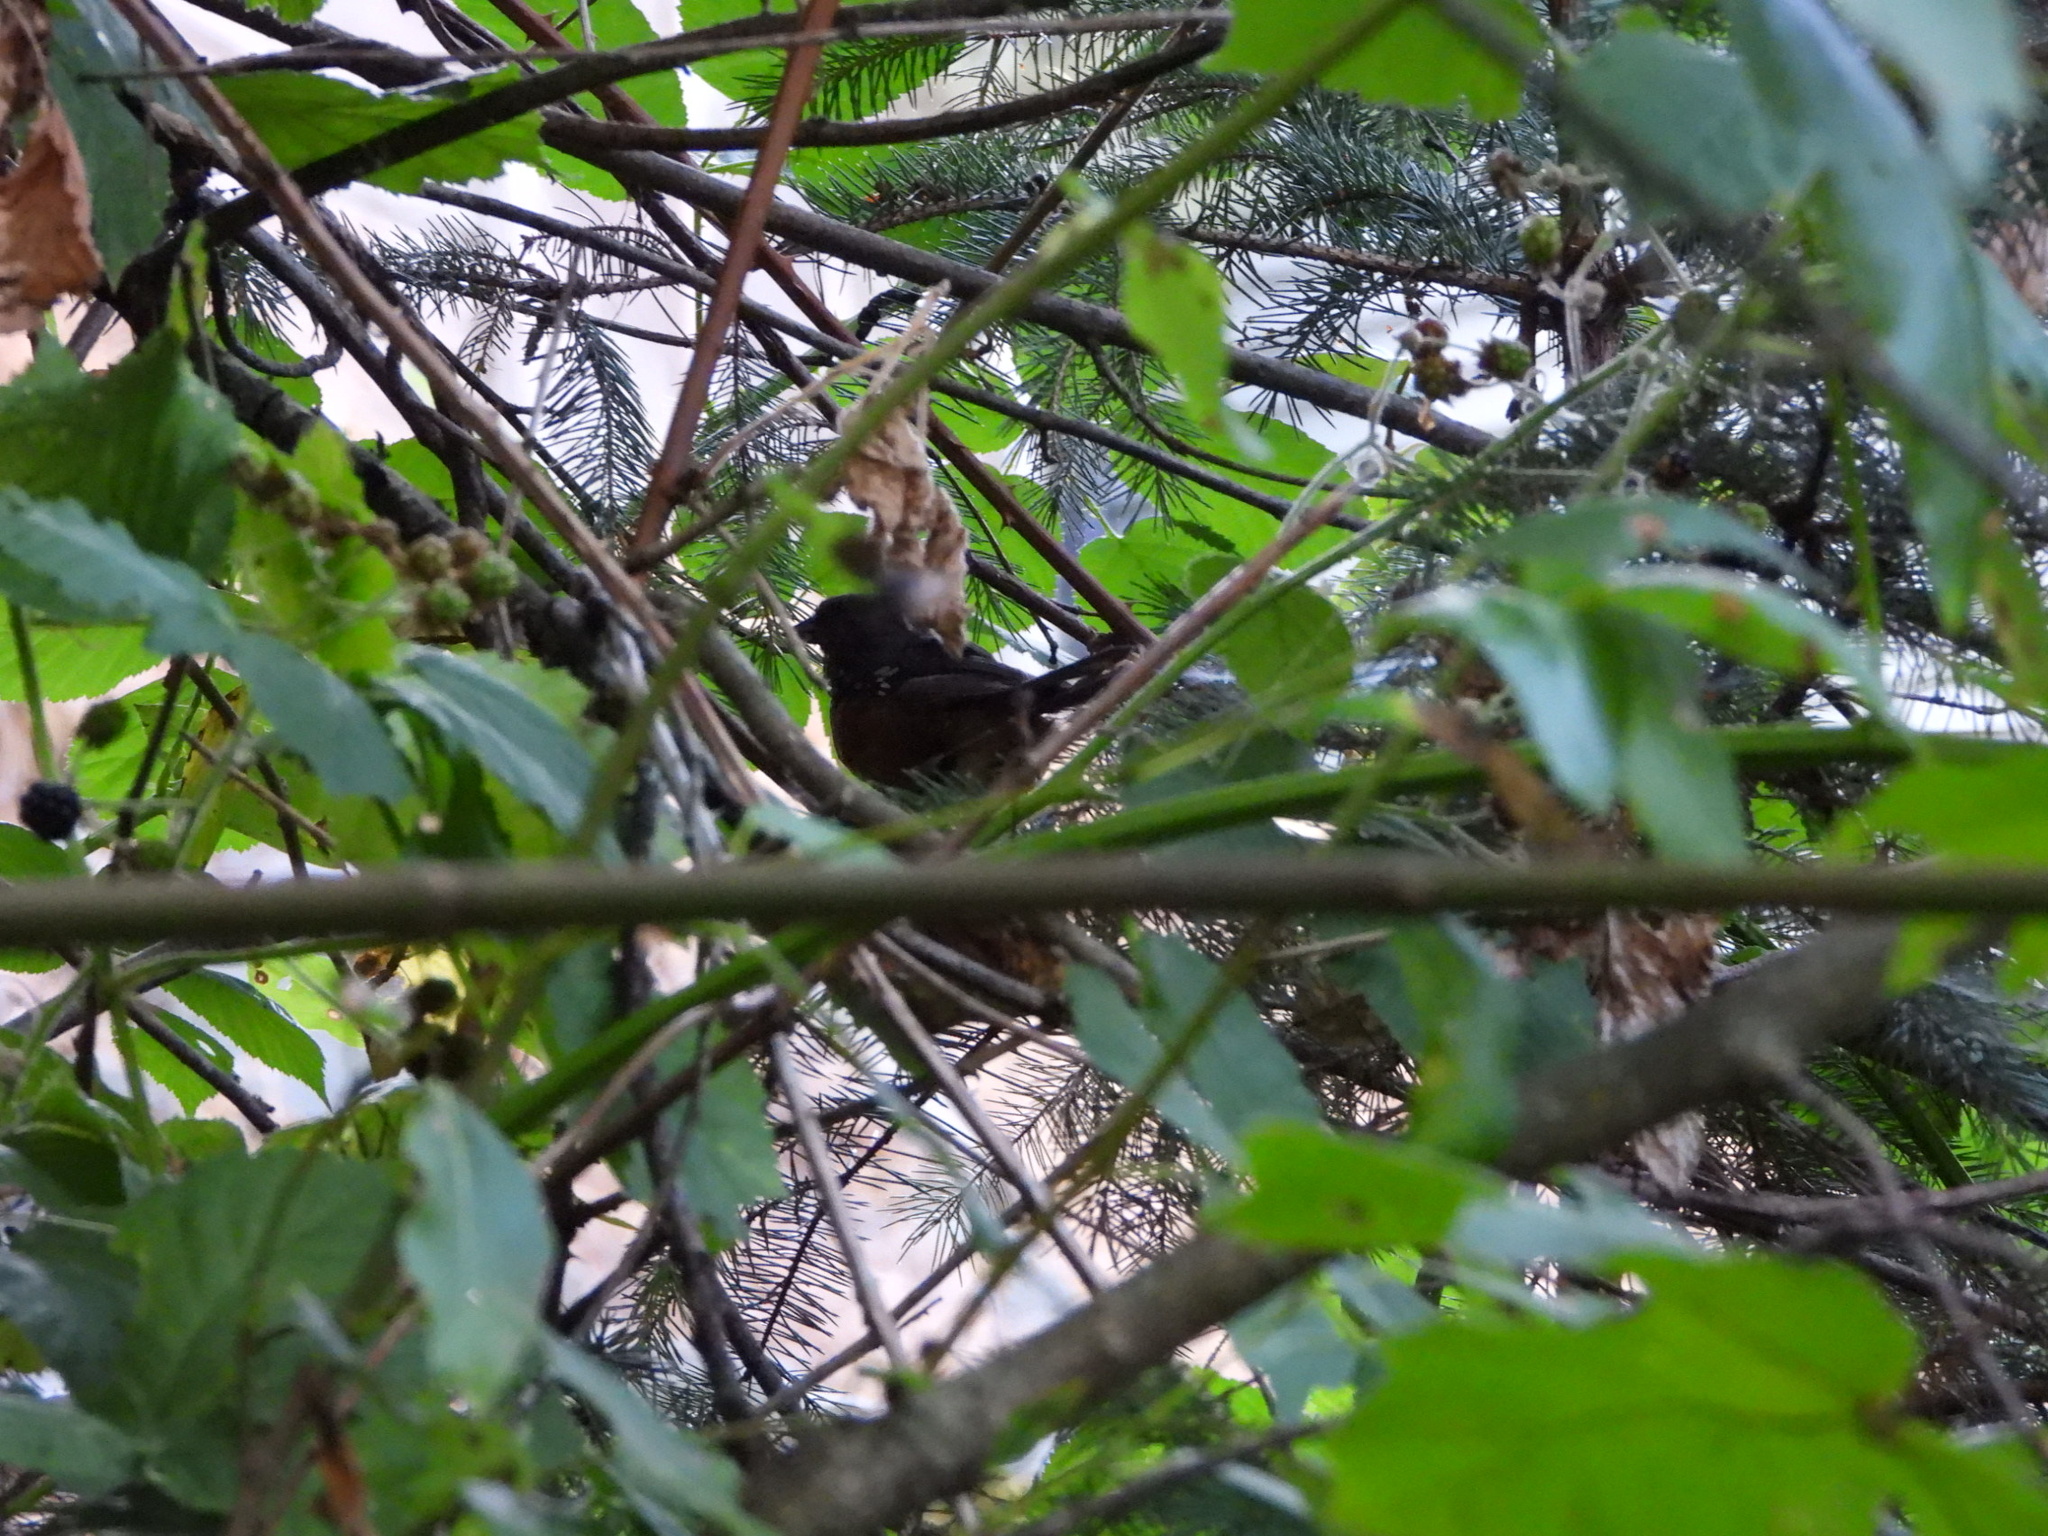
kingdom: Animalia
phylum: Chordata
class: Aves
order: Passeriformes
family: Passerellidae
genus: Pipilo
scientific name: Pipilo maculatus
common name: Spotted towhee
